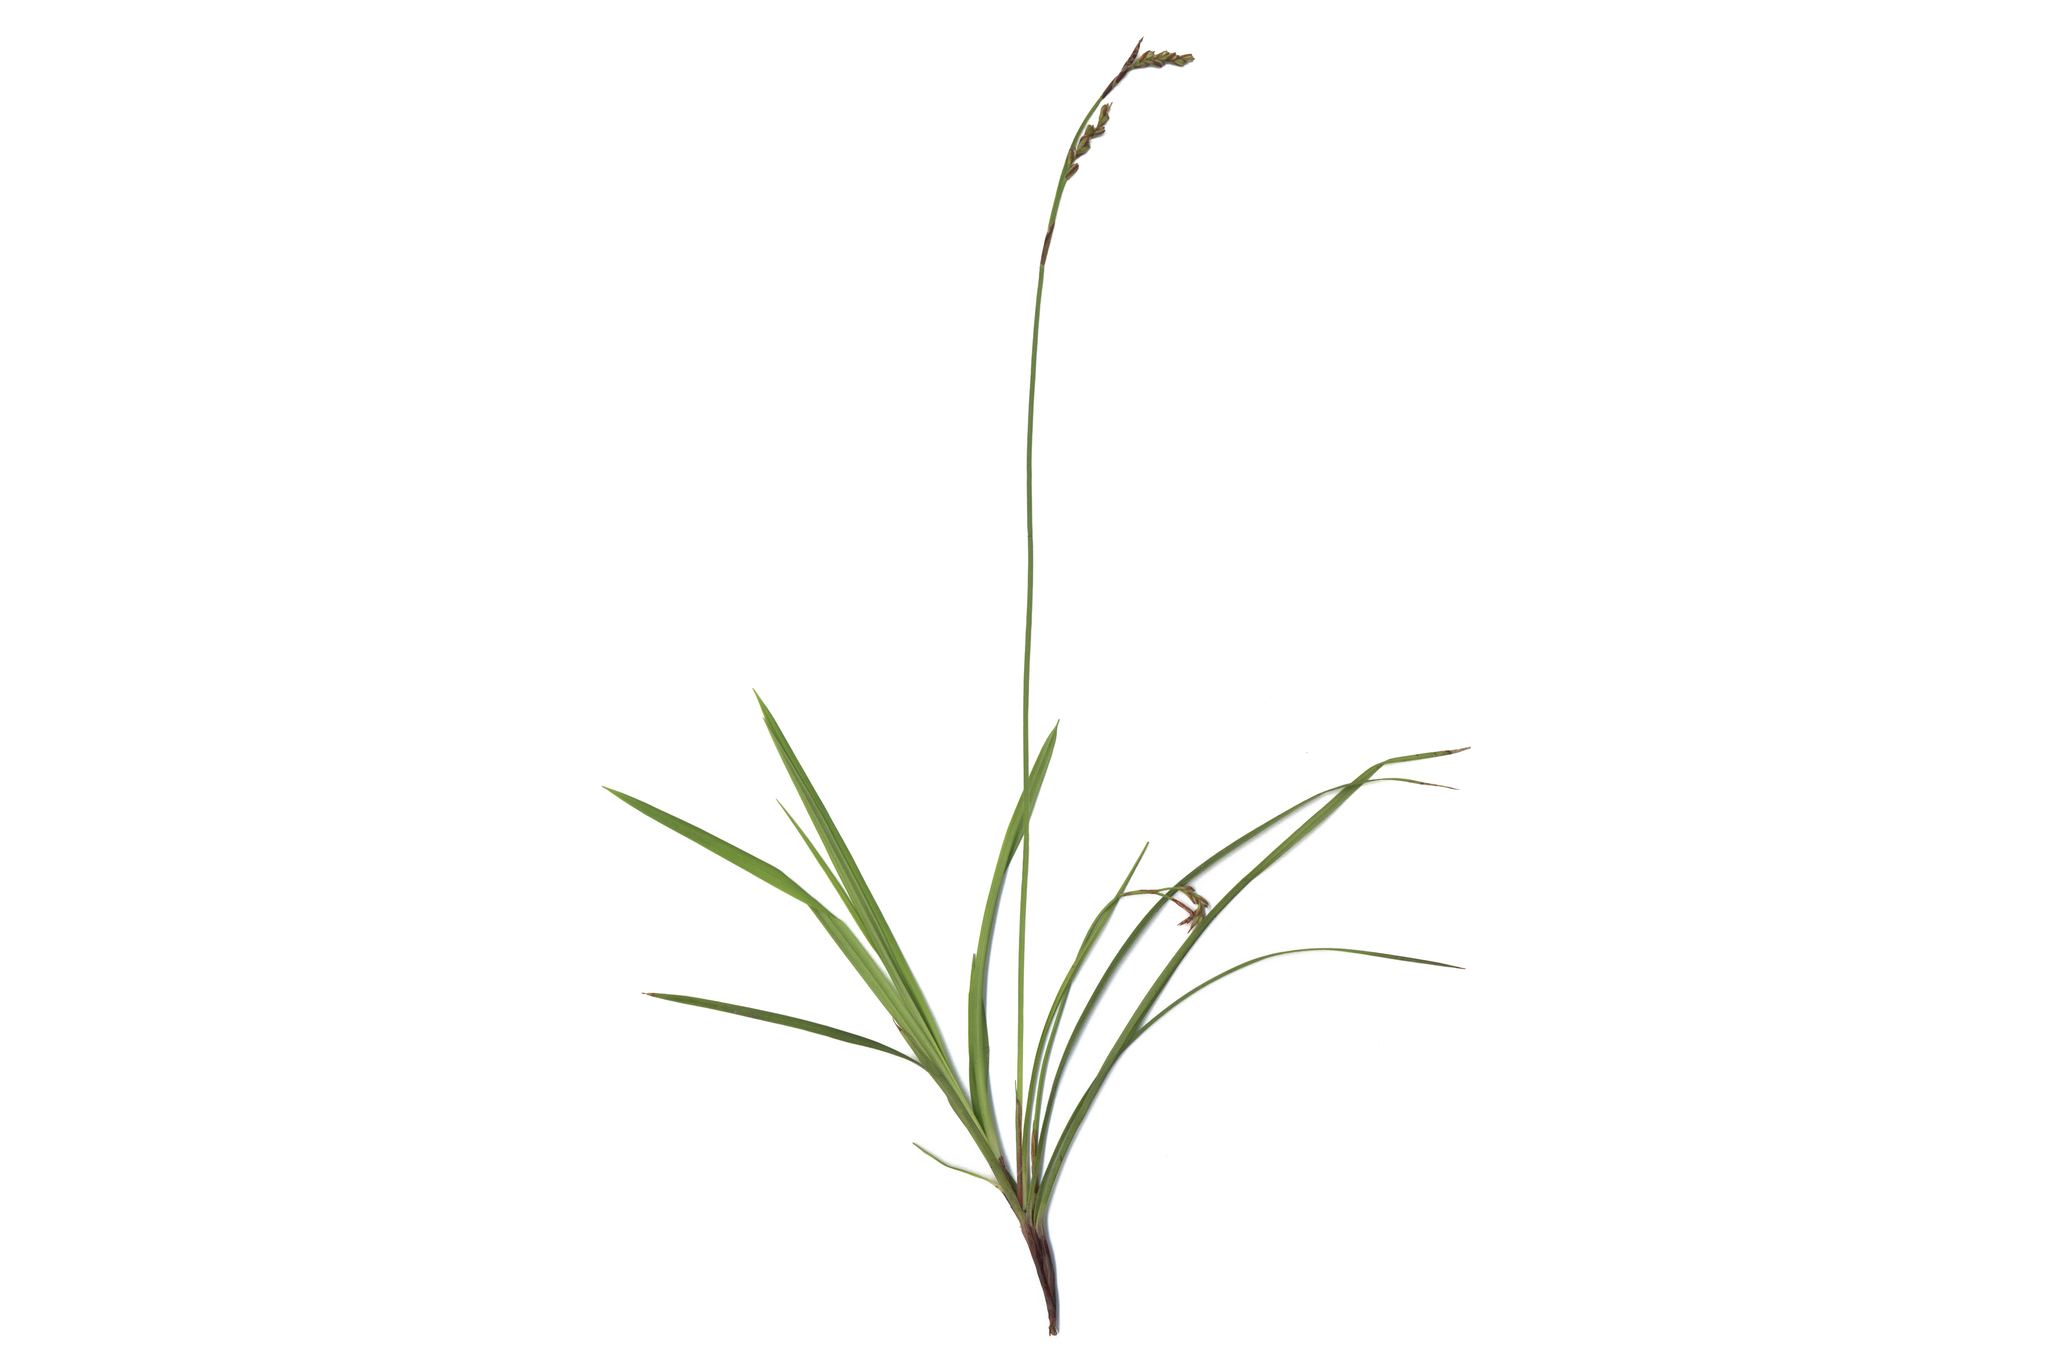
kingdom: Plantae
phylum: Tracheophyta
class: Liliopsida
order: Poales
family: Cyperaceae
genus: Carex
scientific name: Carex digitata
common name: Fingered sedge
